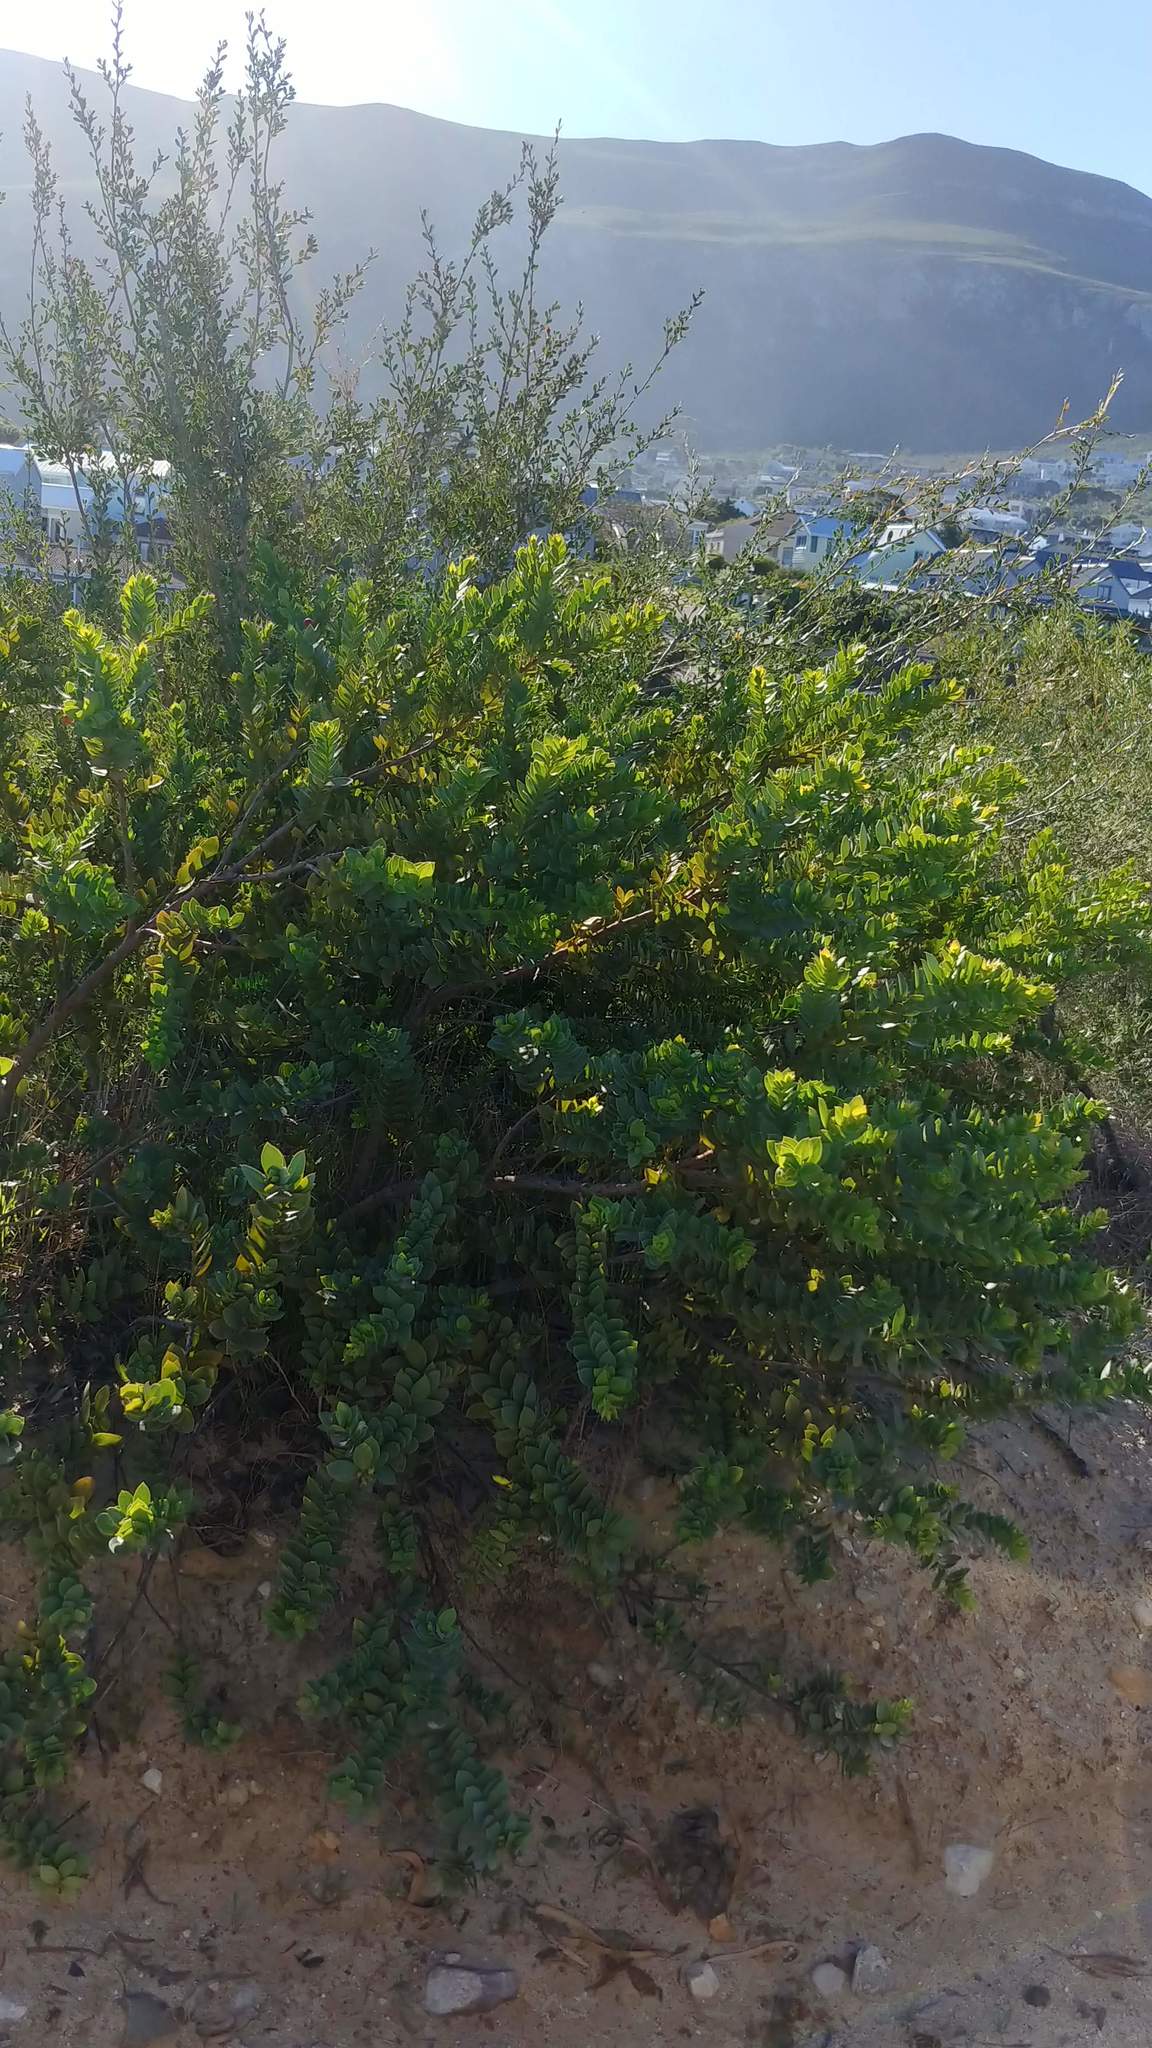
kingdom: Plantae
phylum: Tracheophyta
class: Magnoliopsida
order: Santalales
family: Santalaceae
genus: Osyris
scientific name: Osyris compressa
